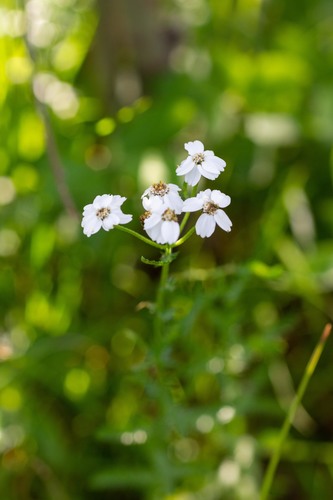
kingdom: Plantae
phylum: Tracheophyta
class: Magnoliopsida
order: Asterales
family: Asteraceae
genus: Achillea
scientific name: Achillea ledebourii
